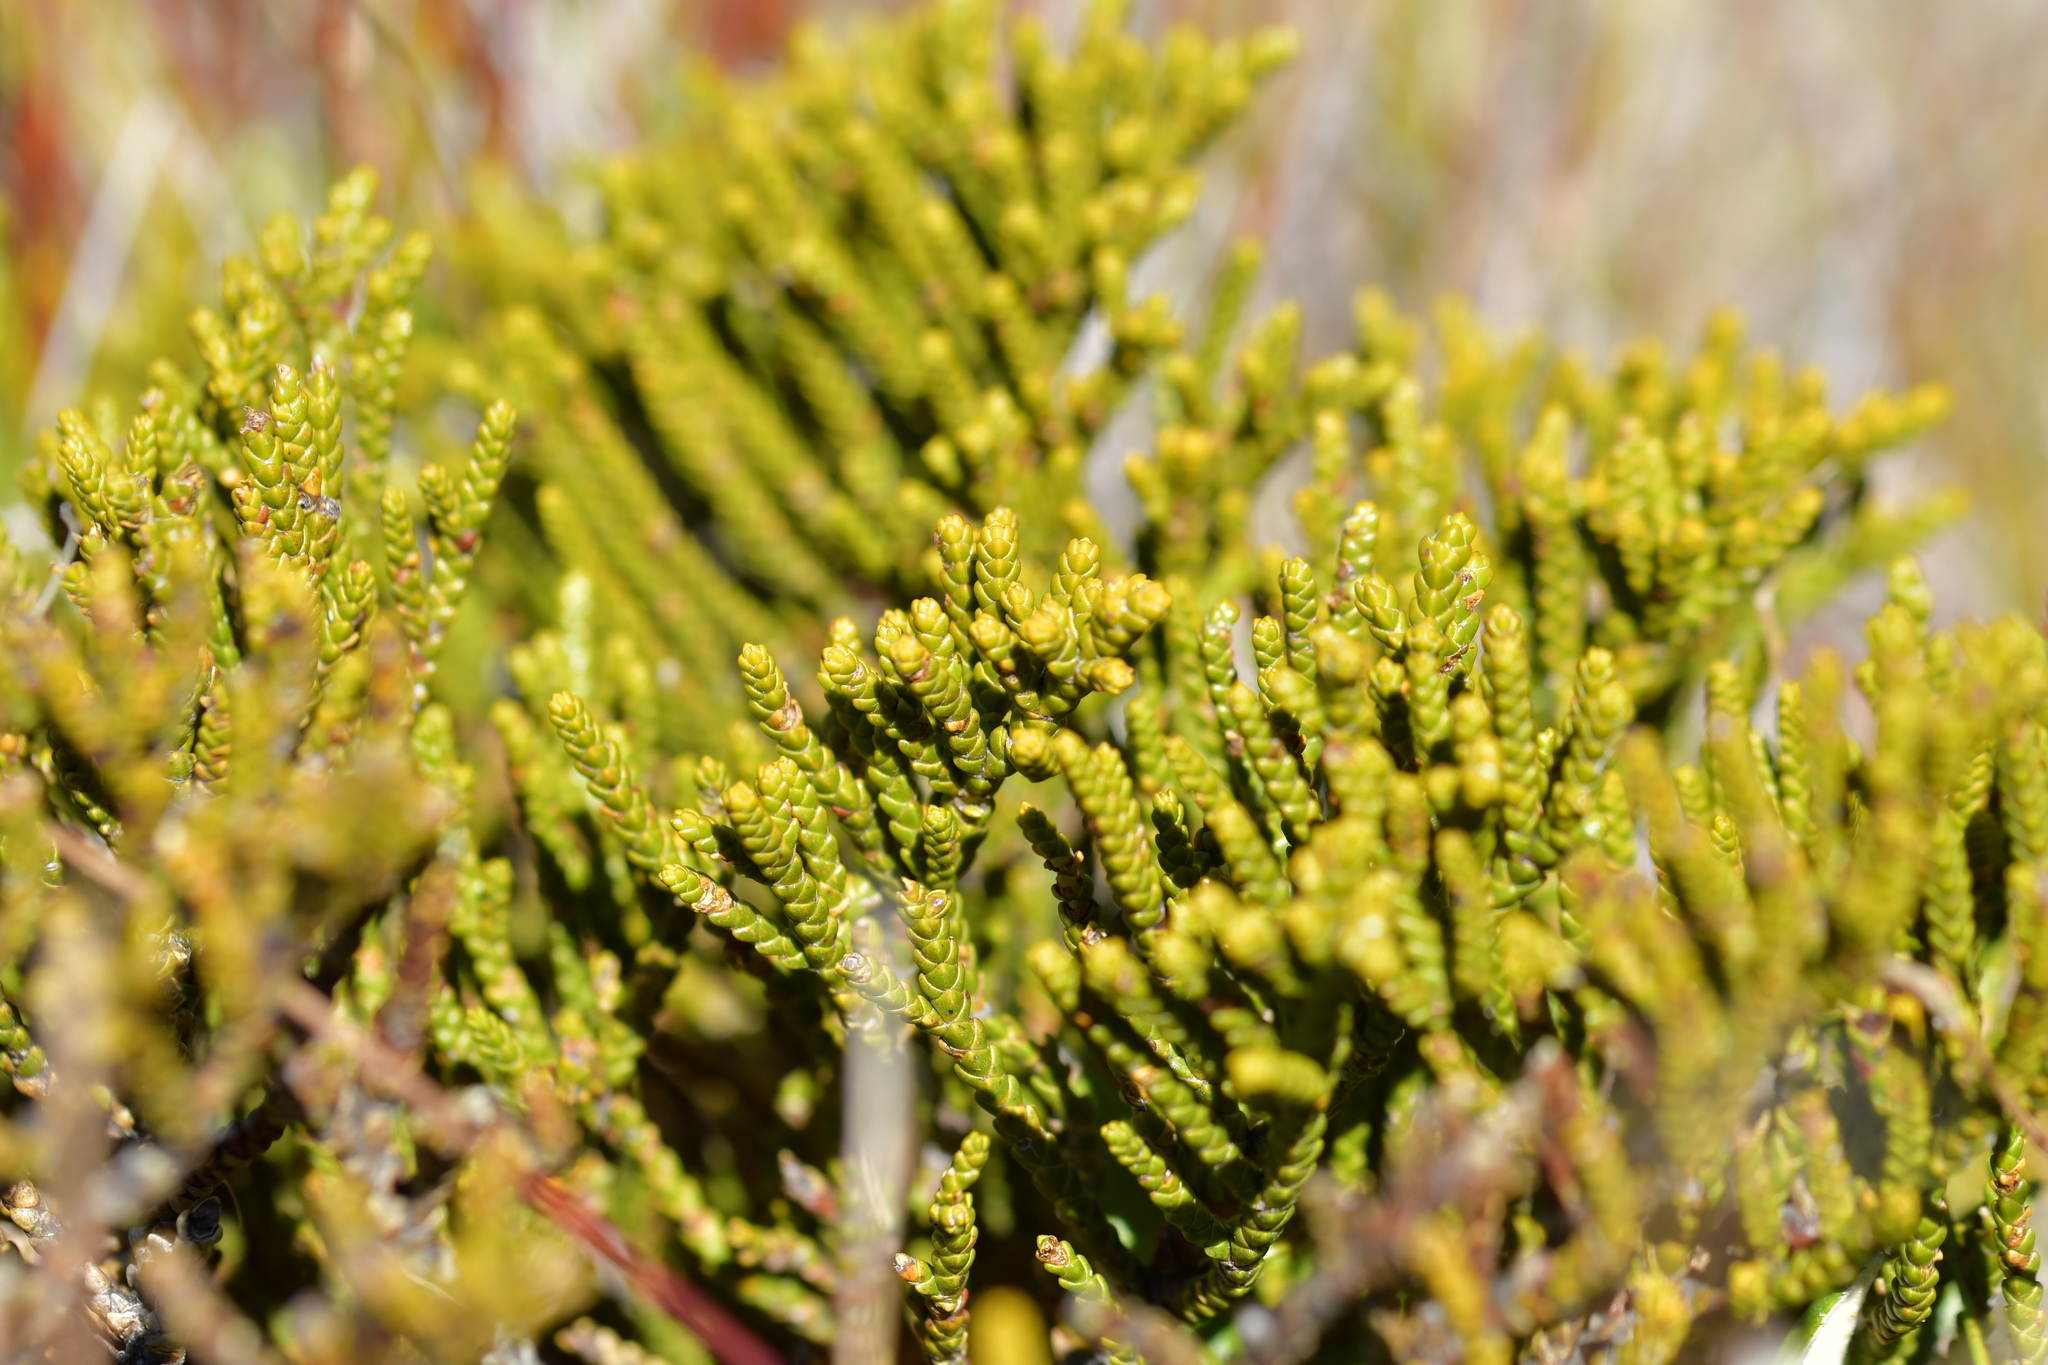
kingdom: Plantae
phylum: Tracheophyta
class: Magnoliopsida
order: Lamiales
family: Plantaginaceae
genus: Veronica
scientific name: Veronica tetragona
